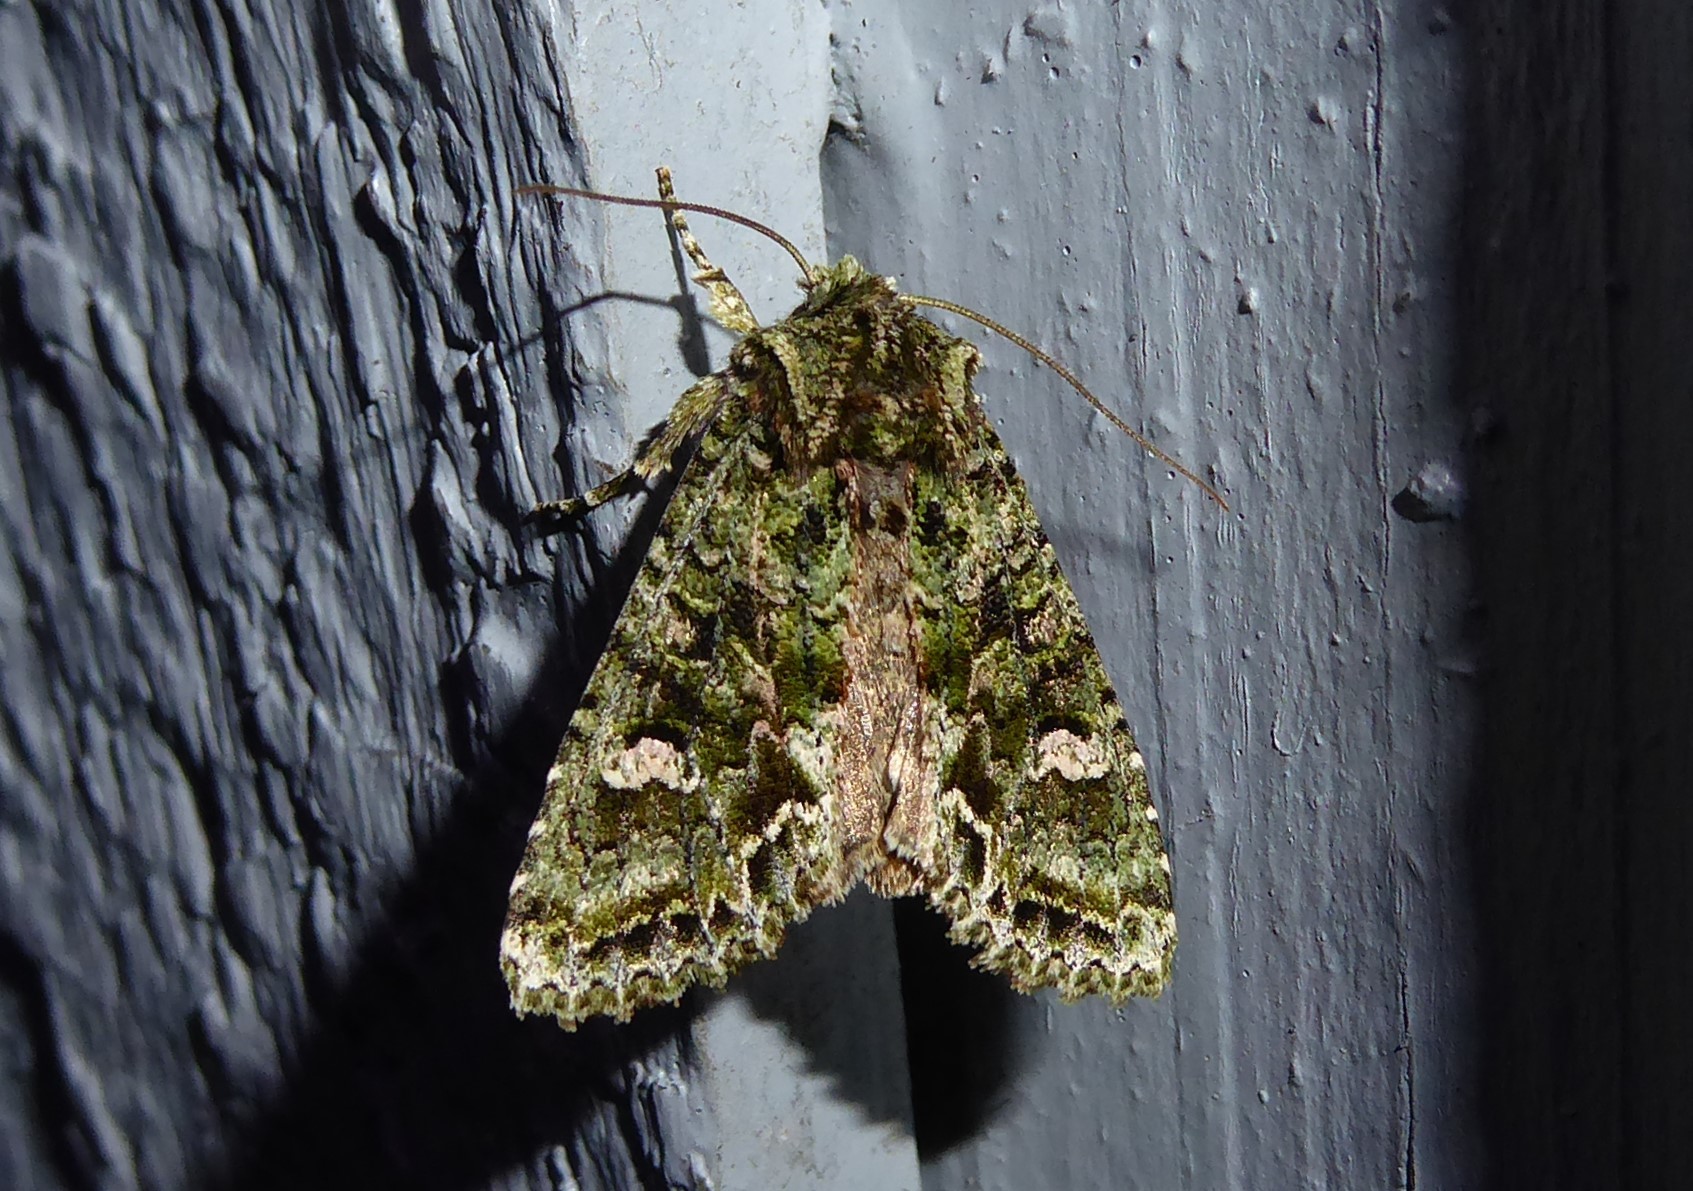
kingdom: Animalia
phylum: Arthropoda
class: Insecta
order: Lepidoptera
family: Noctuidae
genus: Ichneutica
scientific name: Ichneutica
